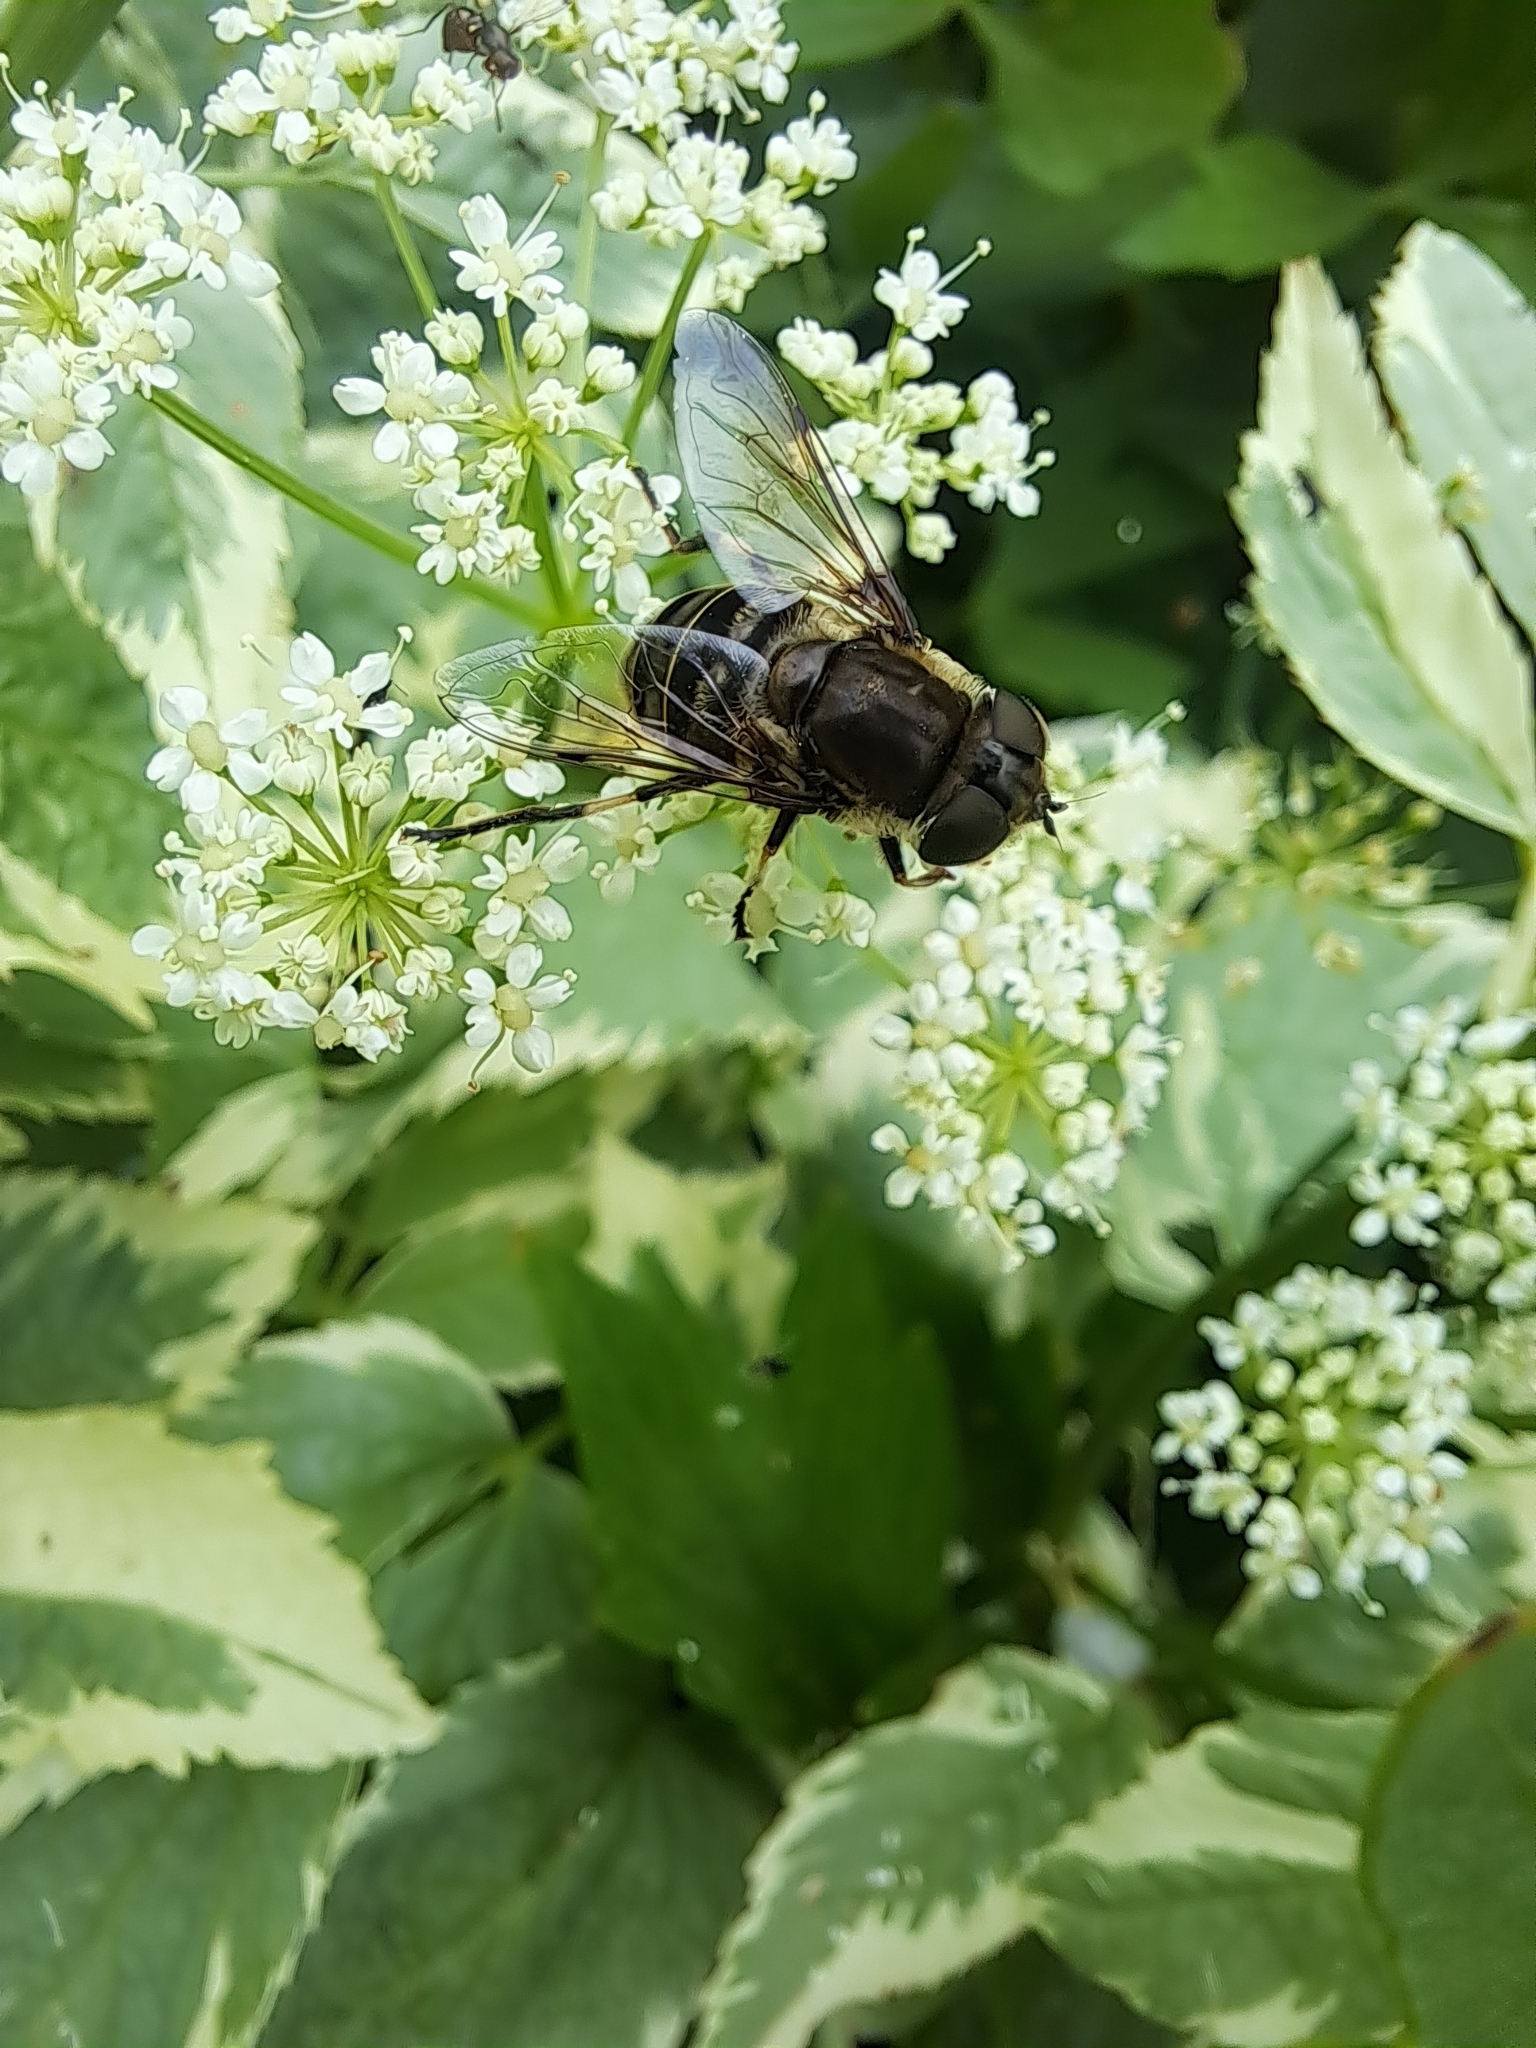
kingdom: Animalia
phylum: Arthropoda
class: Insecta
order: Diptera
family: Syrphidae
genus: Eristalis
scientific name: Eristalis dimidiata
